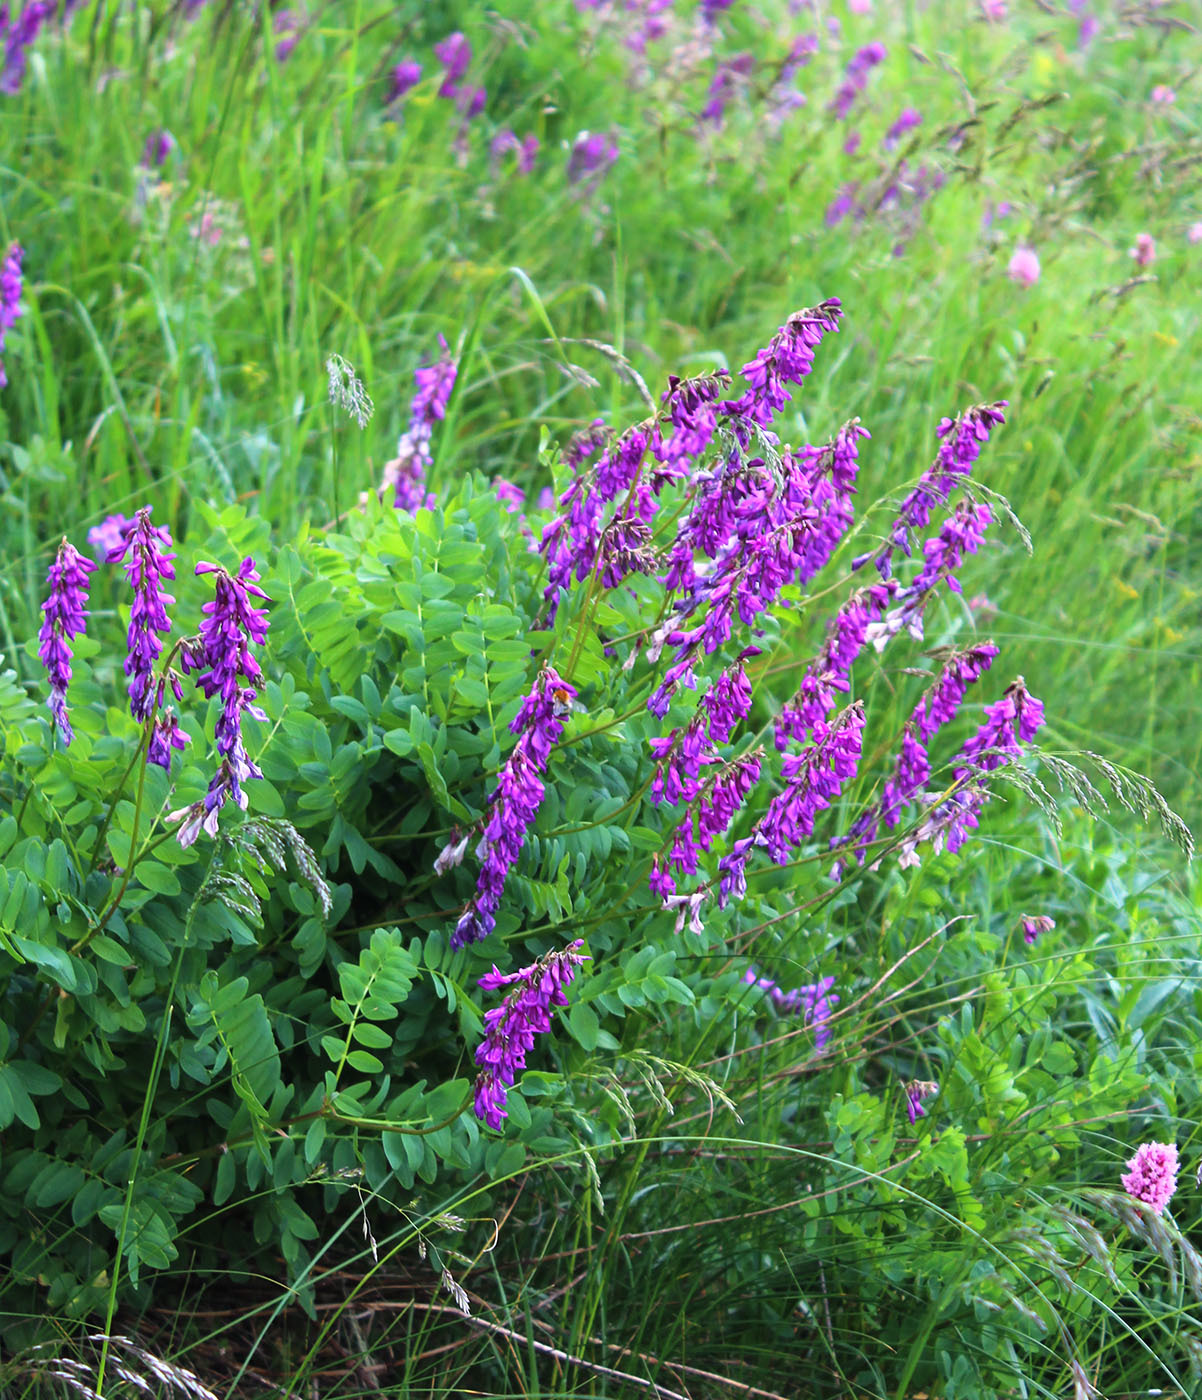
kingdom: Plantae
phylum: Tracheophyta
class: Magnoliopsida
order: Fabales
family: Fabaceae
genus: Hedysarum
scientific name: Hedysarum caucasicum
